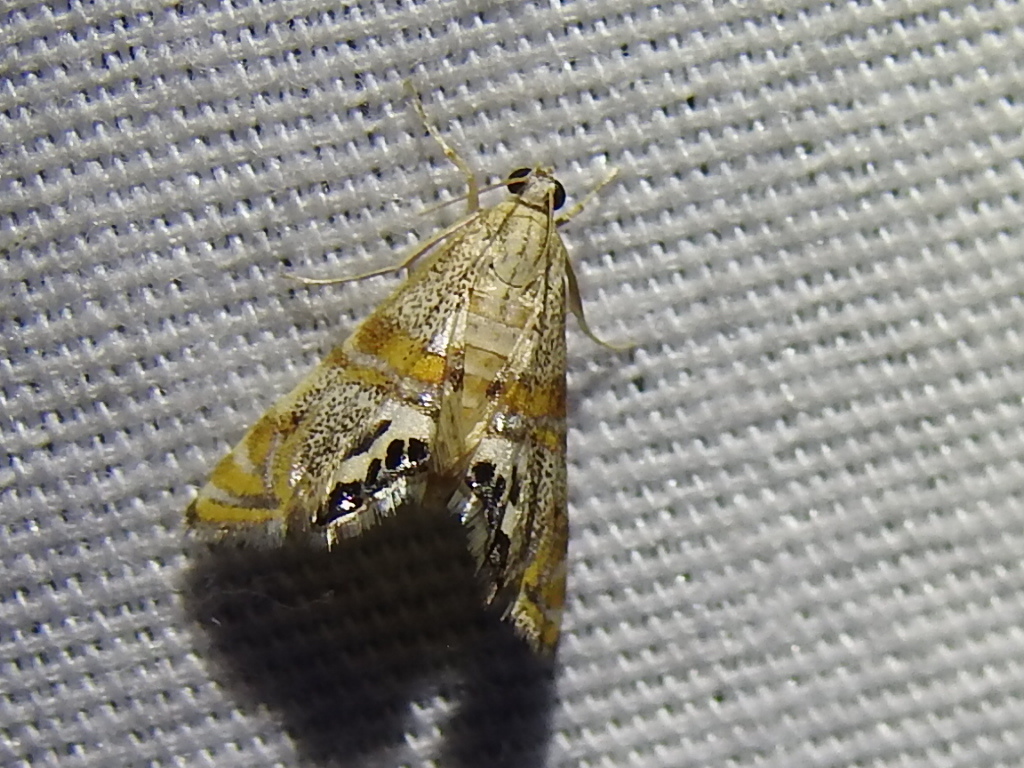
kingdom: Animalia
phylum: Arthropoda
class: Insecta
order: Lepidoptera
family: Crambidae
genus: Petrophila
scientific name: Petrophila bifascialis
